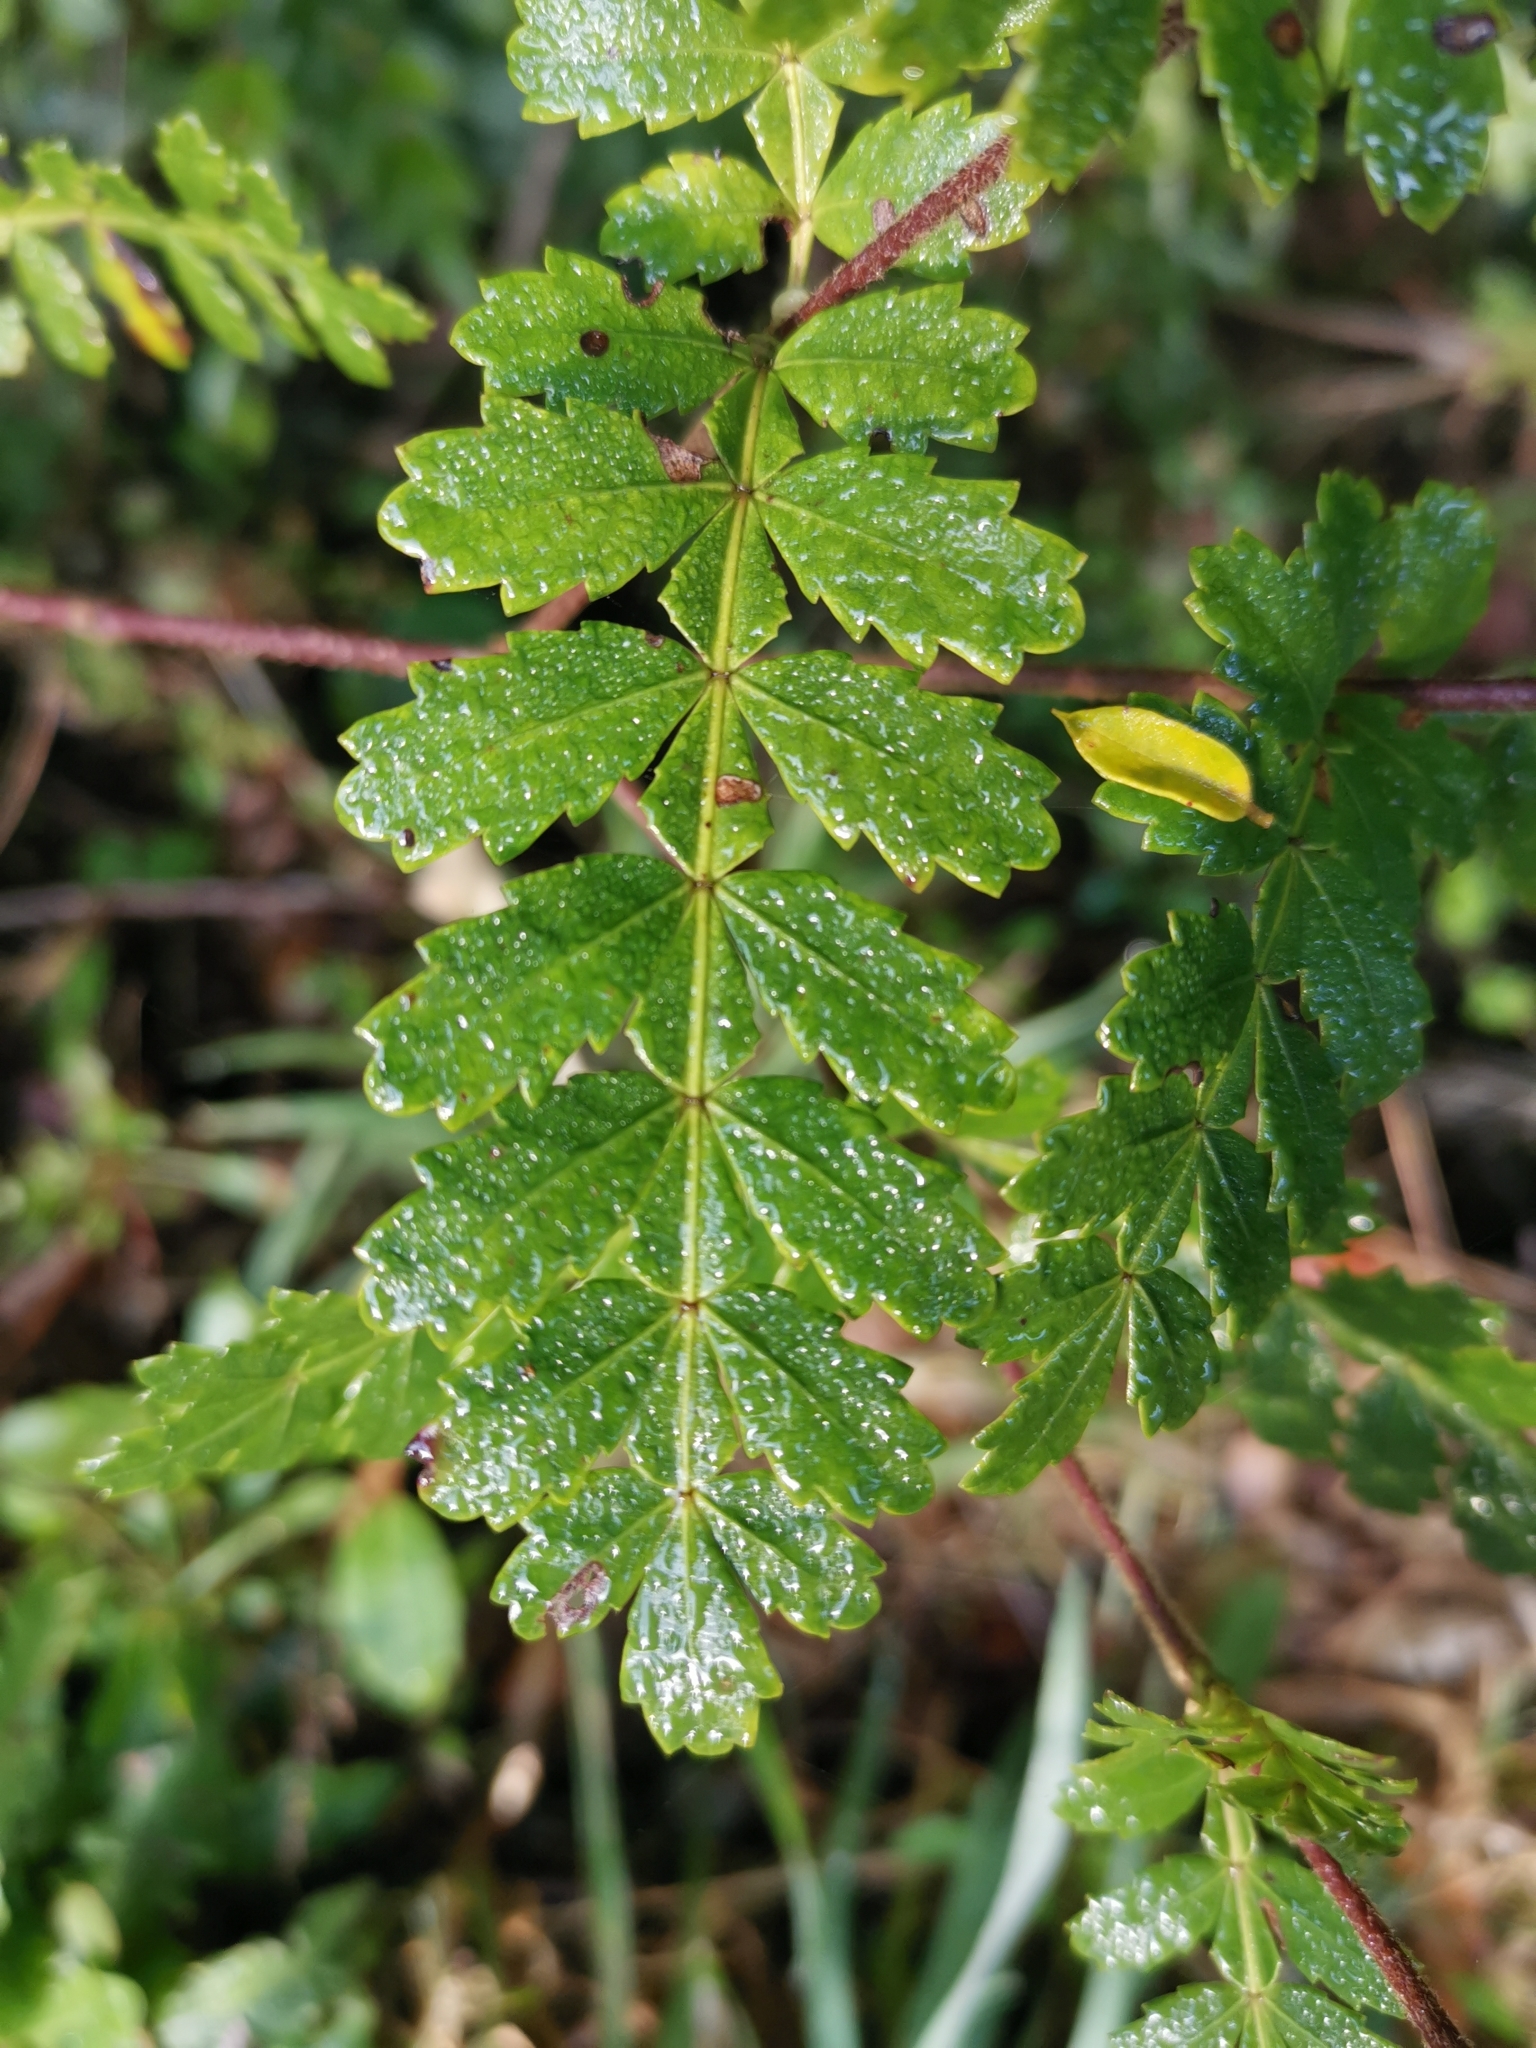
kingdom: Plantae
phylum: Tracheophyta
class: Magnoliopsida
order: Oxalidales
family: Cunoniaceae
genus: Weinmannia
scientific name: Weinmannia trichosperma
